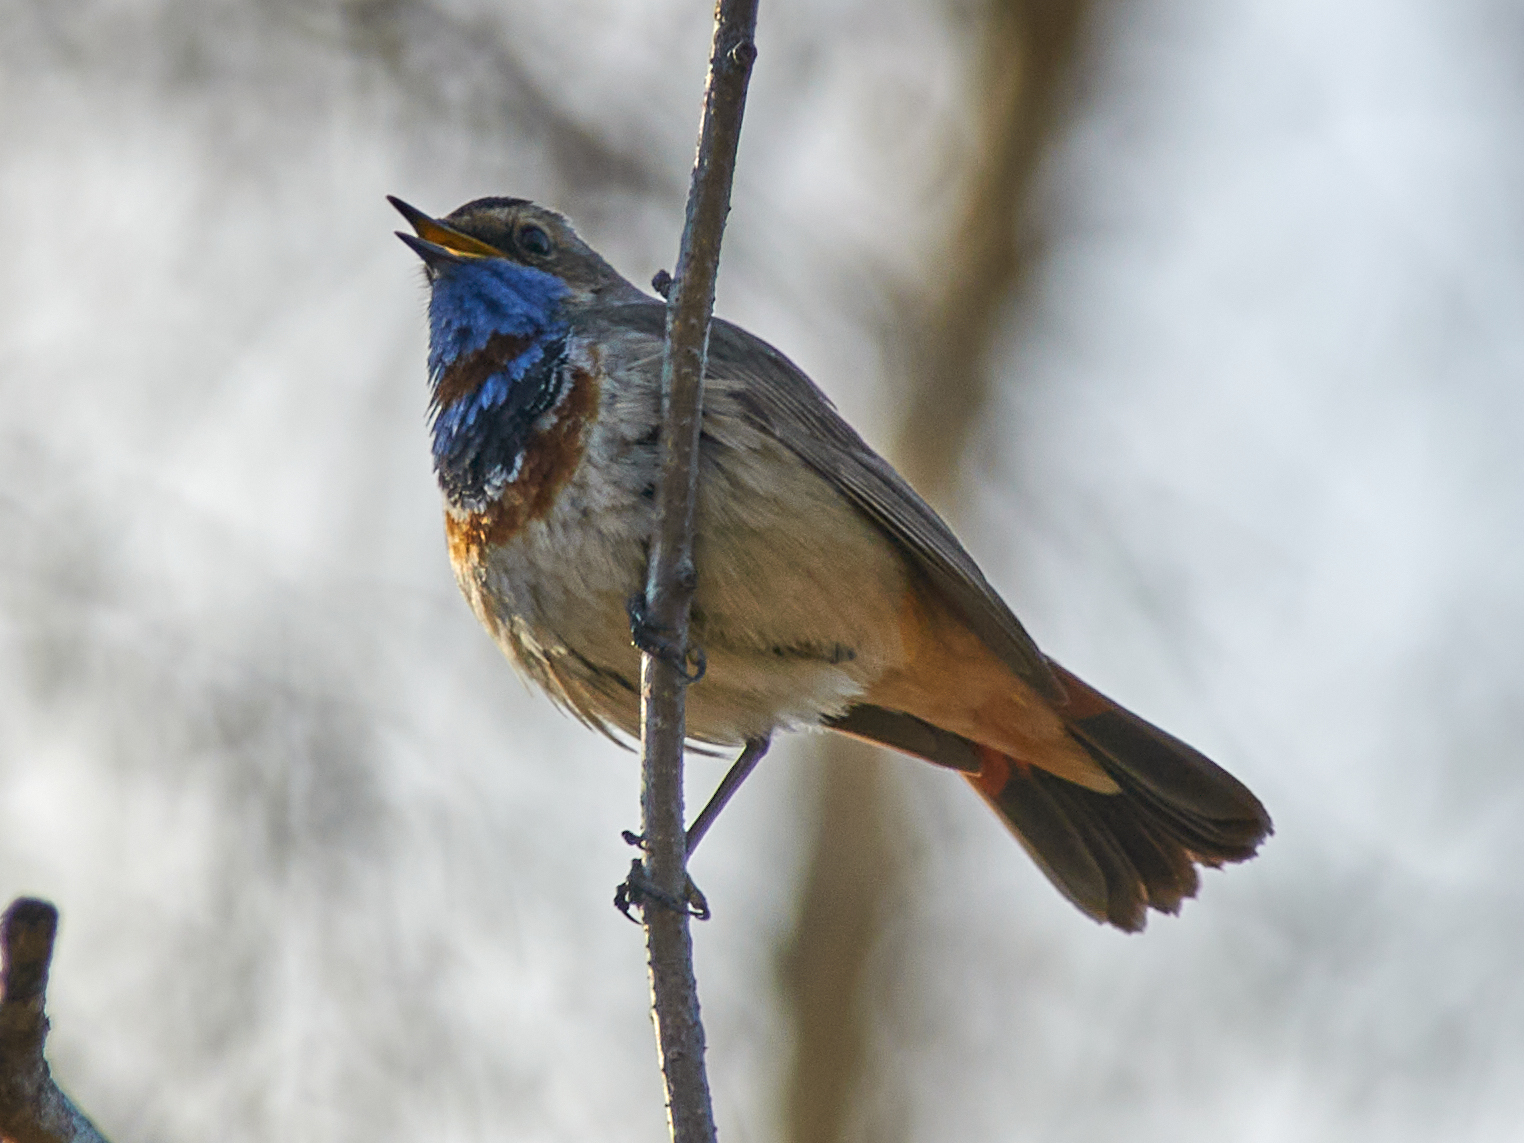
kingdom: Animalia
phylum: Chordata
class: Aves
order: Passeriformes
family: Muscicapidae
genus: Luscinia
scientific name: Luscinia svecica
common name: Bluethroat
